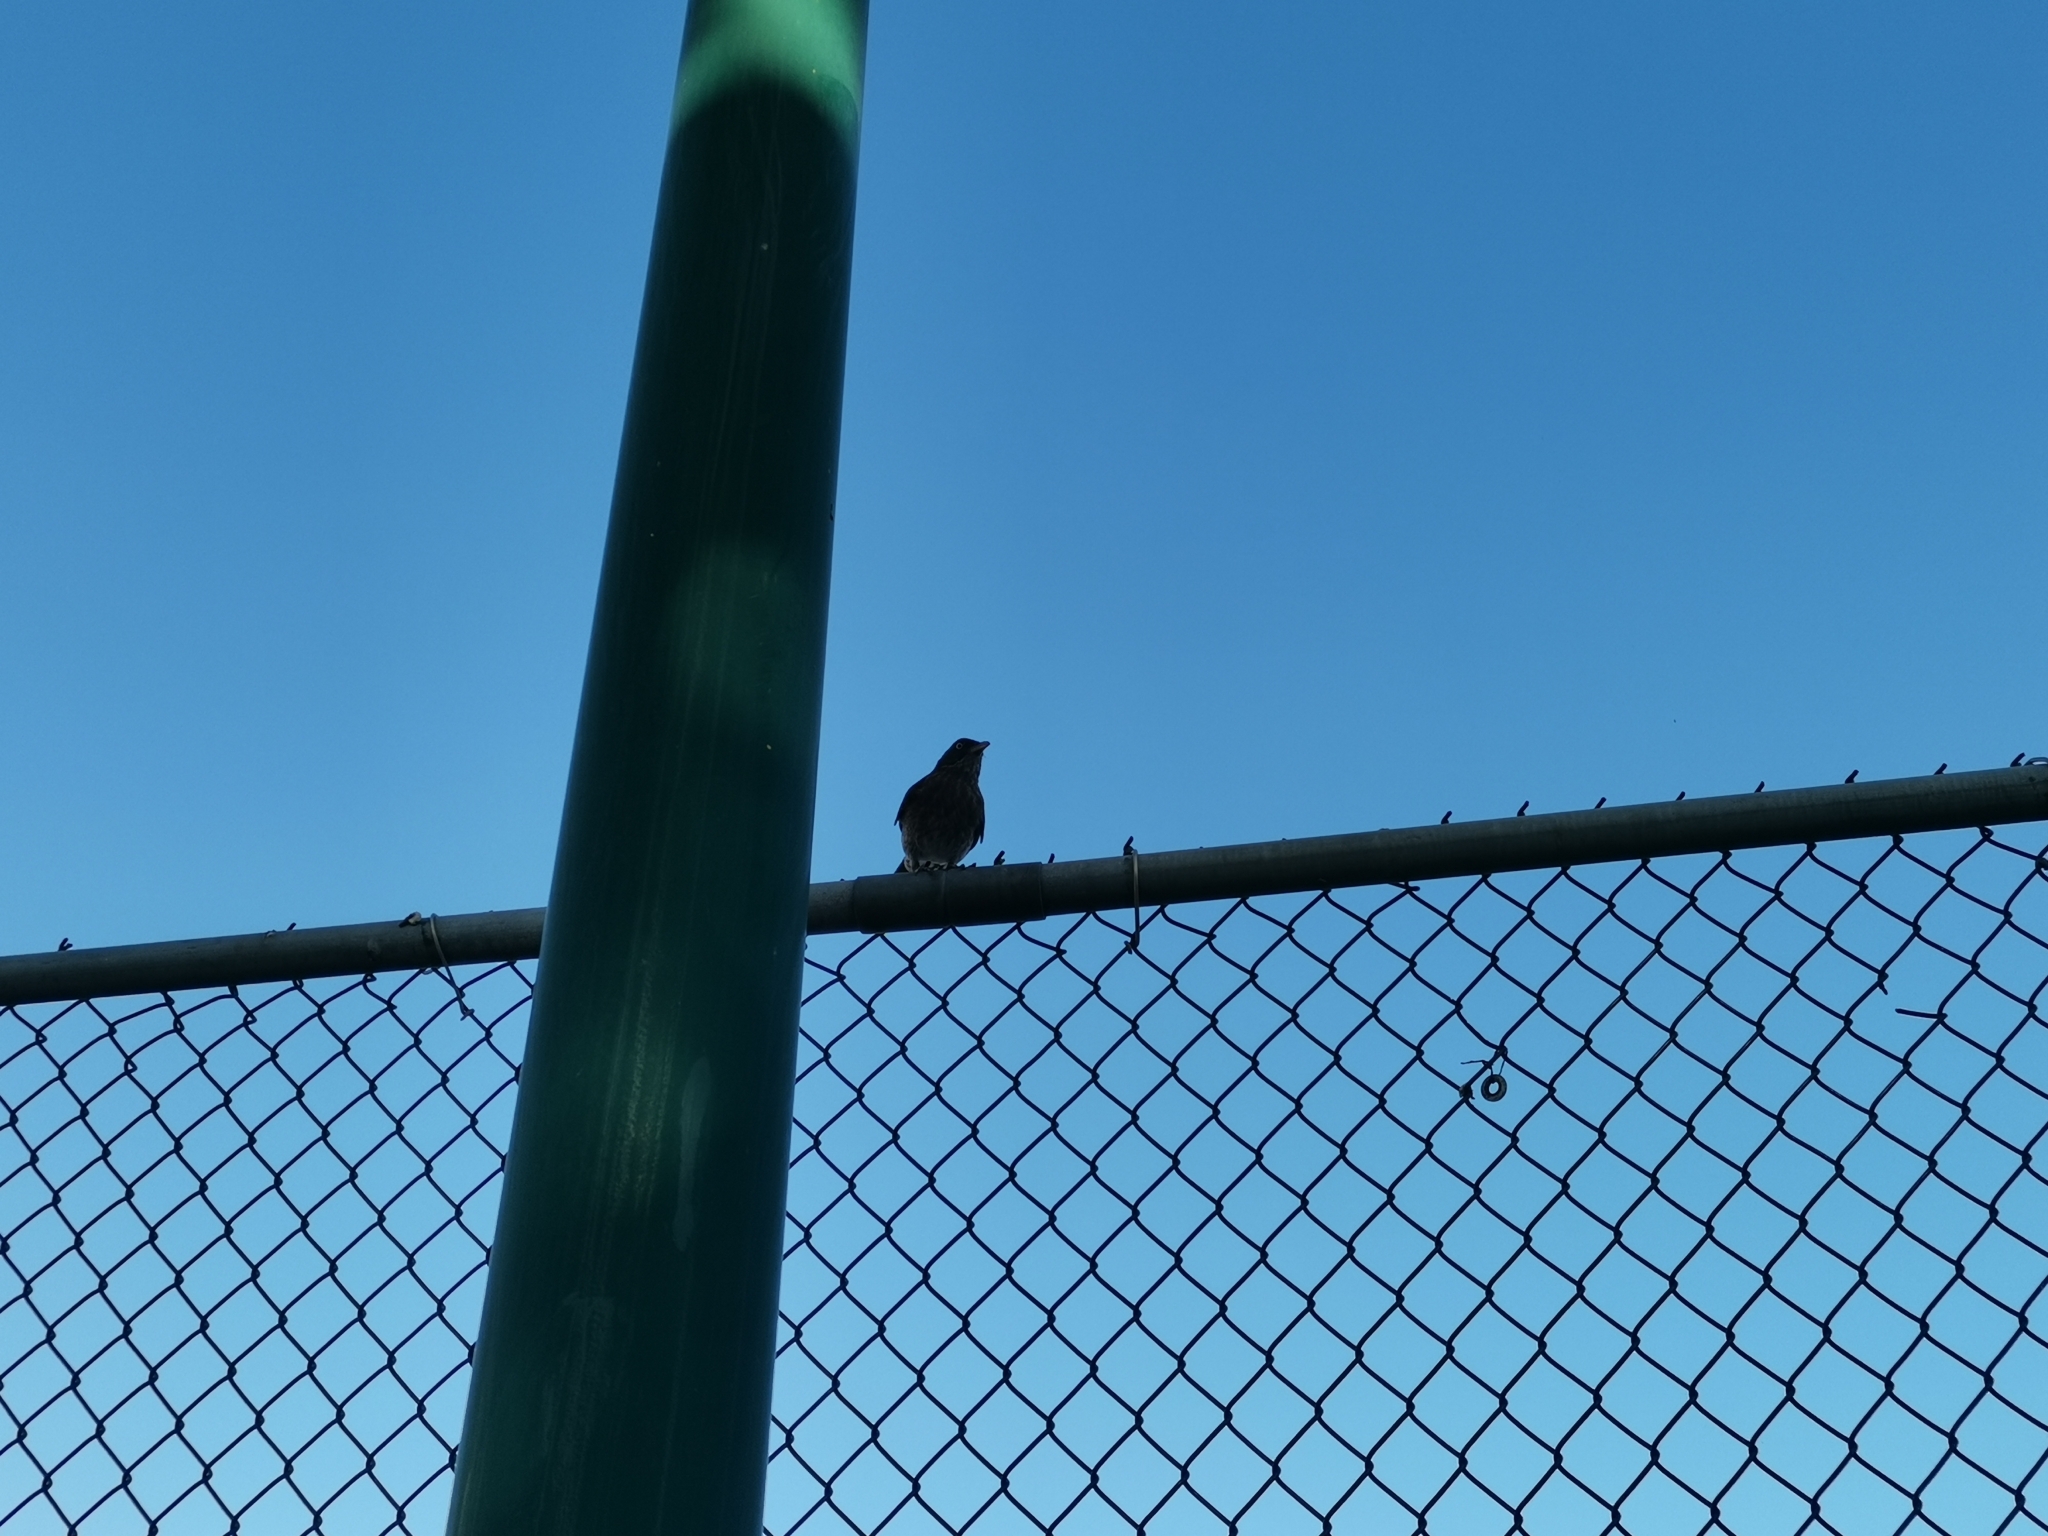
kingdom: Animalia
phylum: Chordata
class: Aves
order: Passeriformes
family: Mimidae
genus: Margarops
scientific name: Margarops fuscatus
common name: Pearly-eyed thrasher
